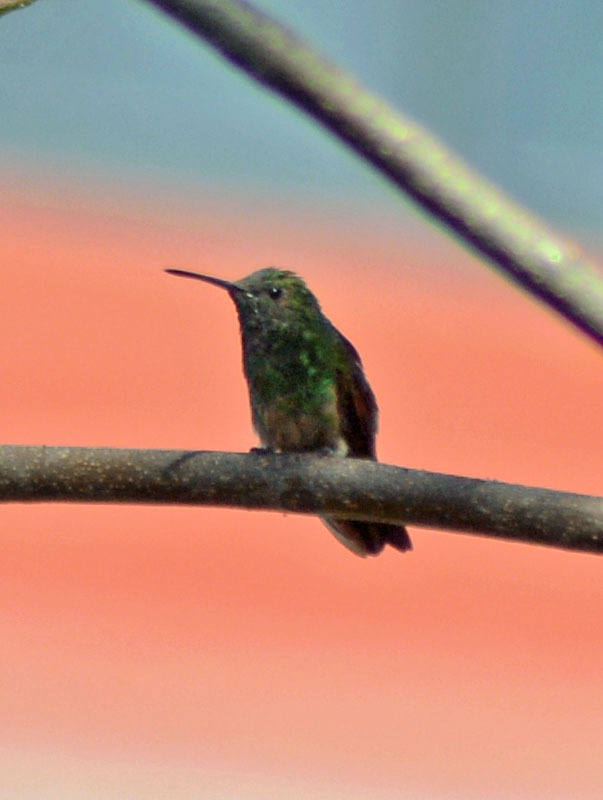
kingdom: Animalia
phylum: Chordata
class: Aves
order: Apodiformes
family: Trochilidae
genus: Saucerottia
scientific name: Saucerottia beryllina
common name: Berylline hummingbird
